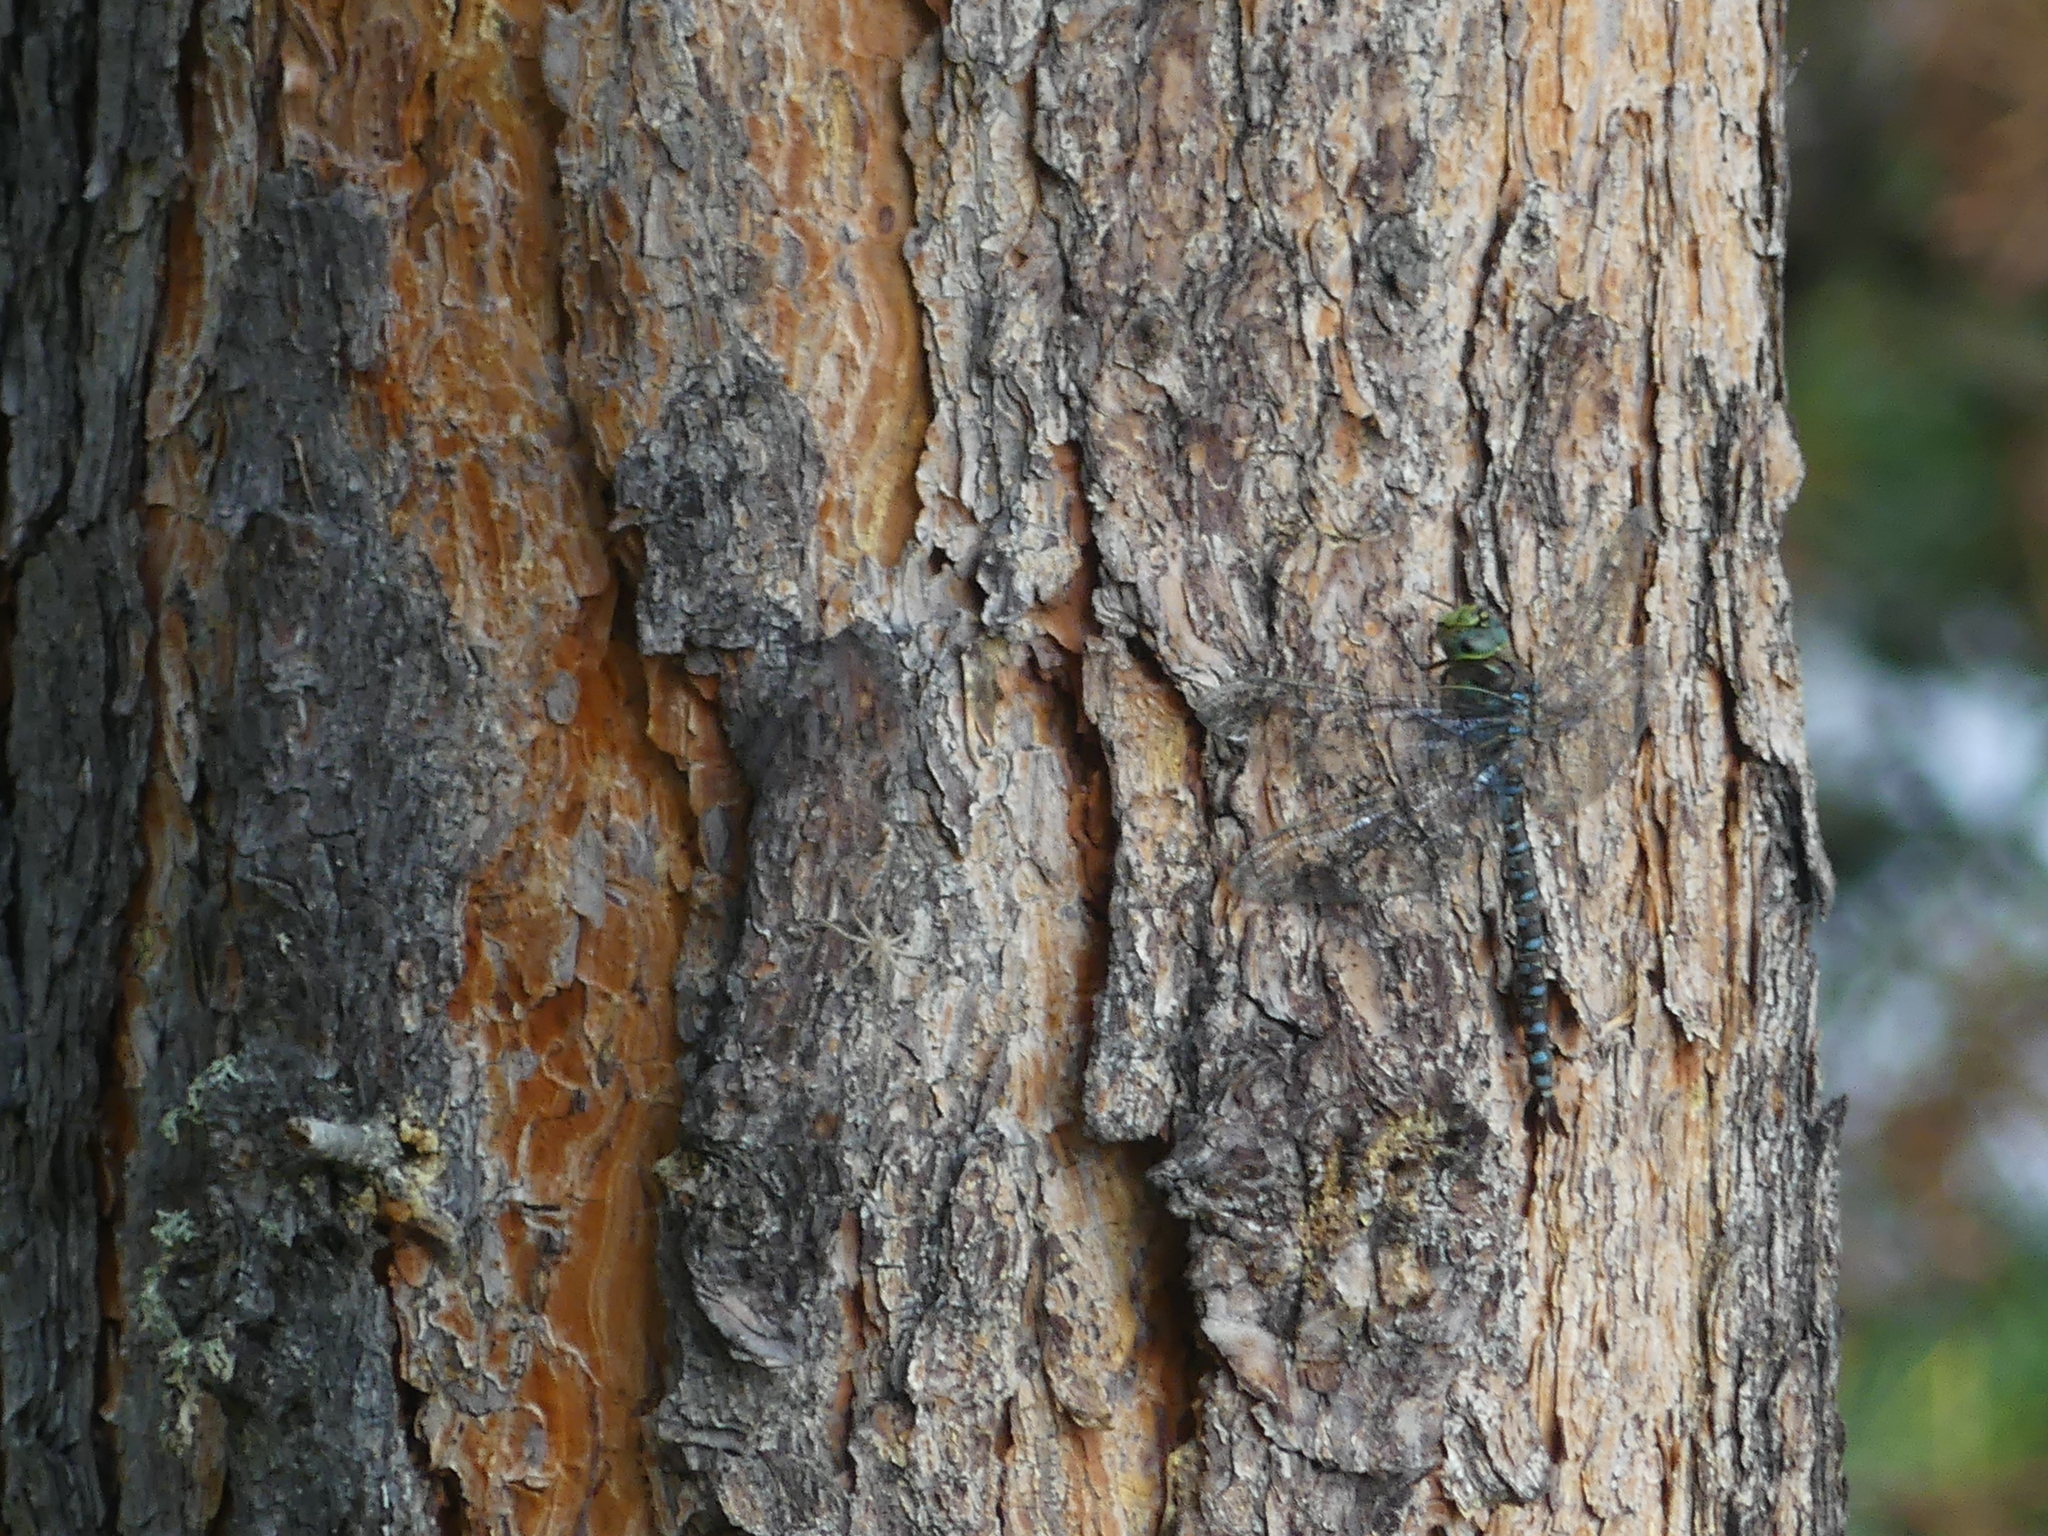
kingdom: Animalia
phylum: Arthropoda
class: Insecta
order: Odonata
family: Aeshnidae
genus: Aeshna
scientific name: Aeshna eremita
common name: Lake darner
